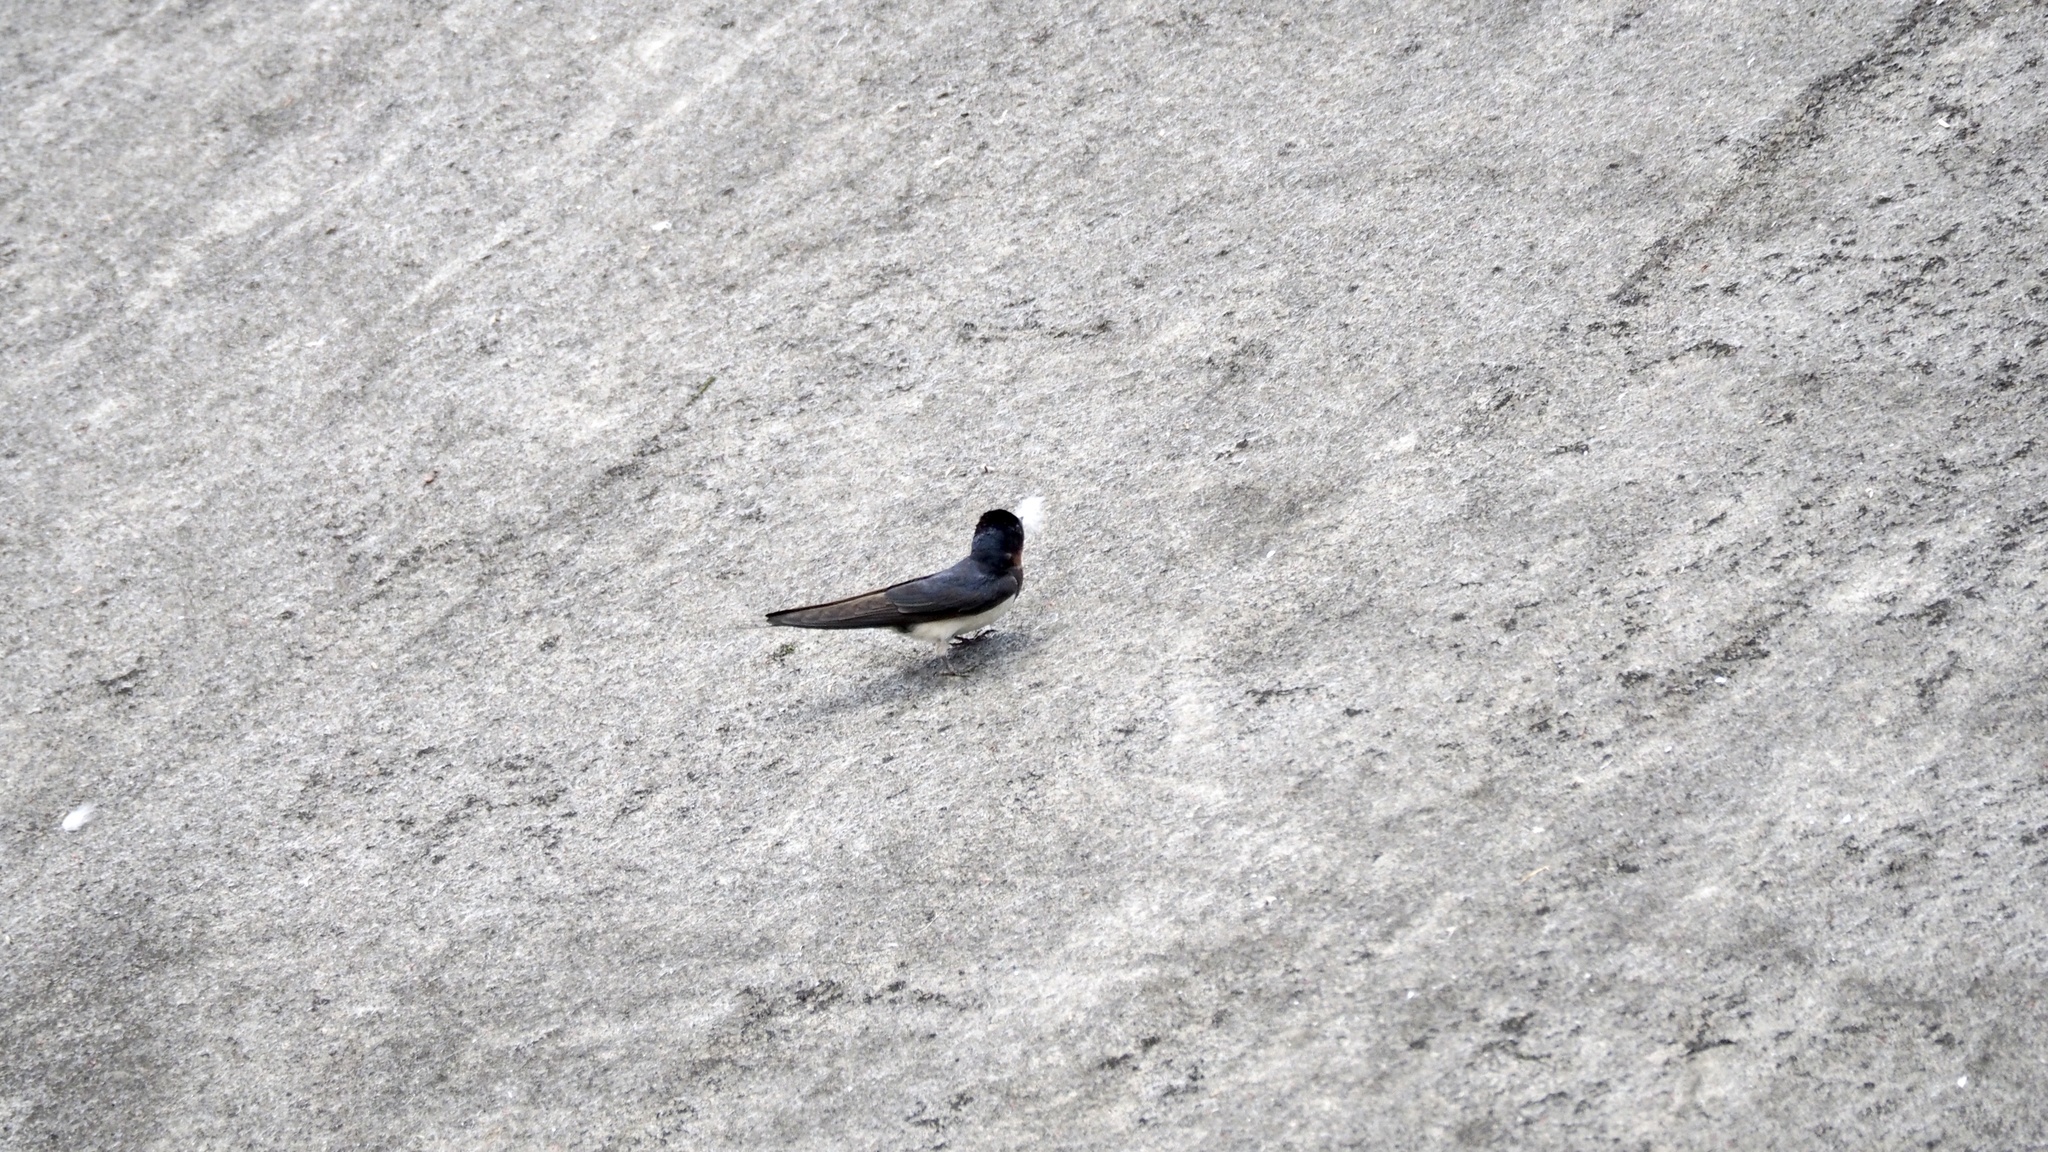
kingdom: Animalia
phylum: Chordata
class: Aves
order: Passeriformes
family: Hirundinidae
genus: Hirundo
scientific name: Hirundo rustica
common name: Barn swallow
